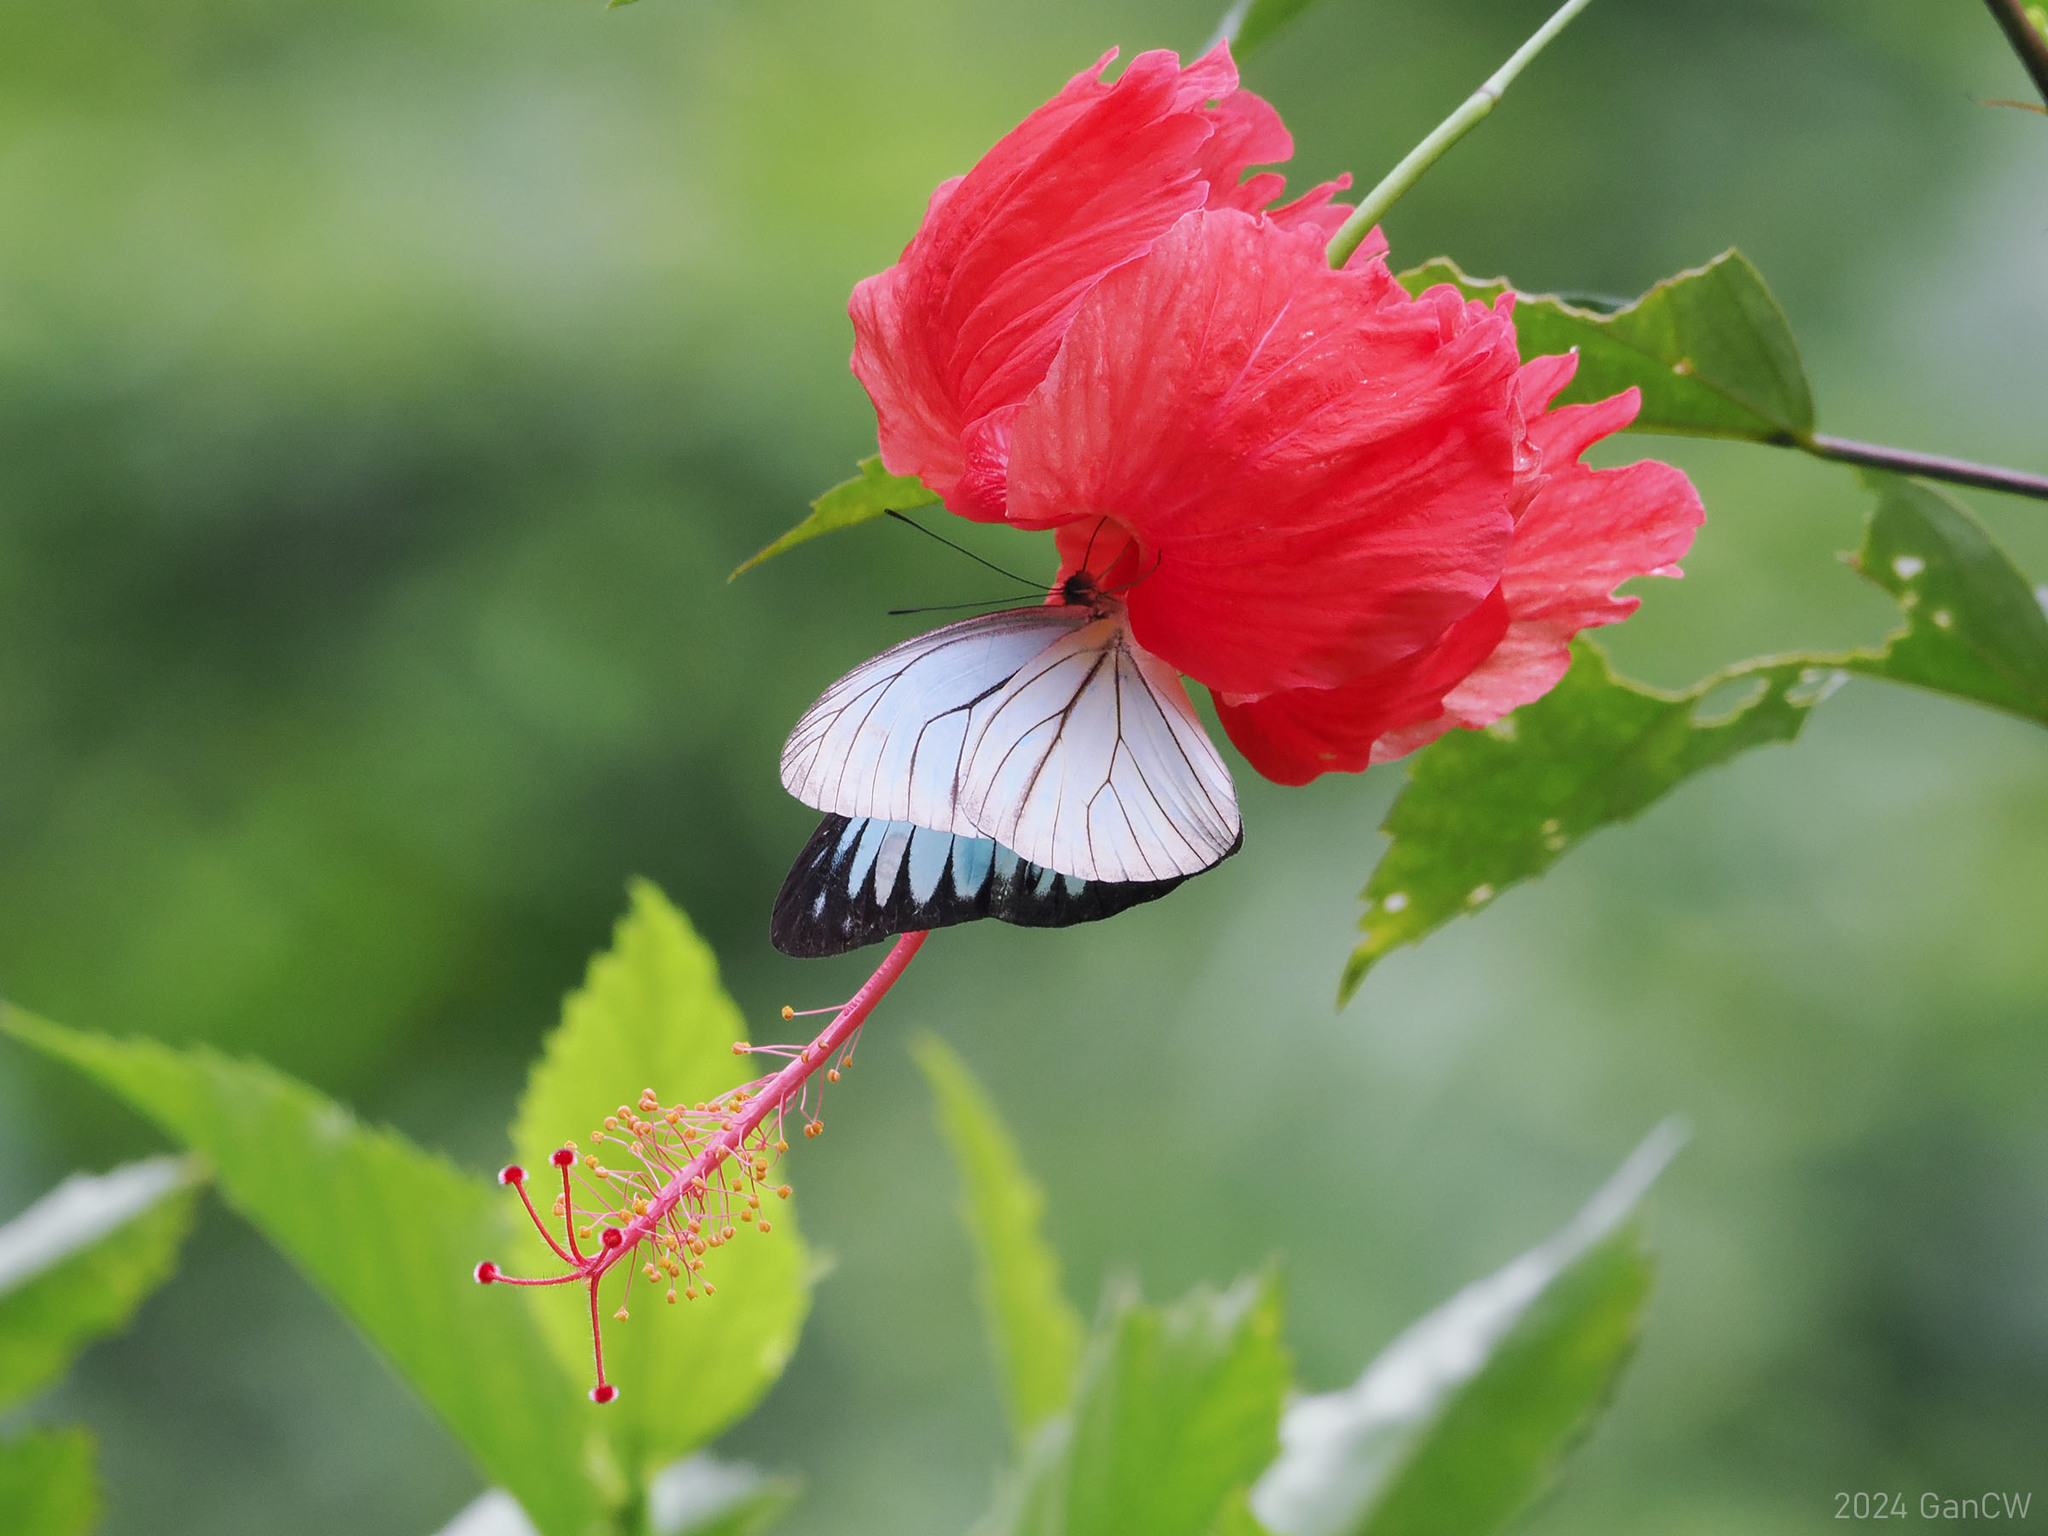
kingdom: Animalia
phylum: Arthropoda
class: Insecta
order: Lepidoptera
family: Pieridae
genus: Pareronia
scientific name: Pareronia valeria
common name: Common wanderer?
